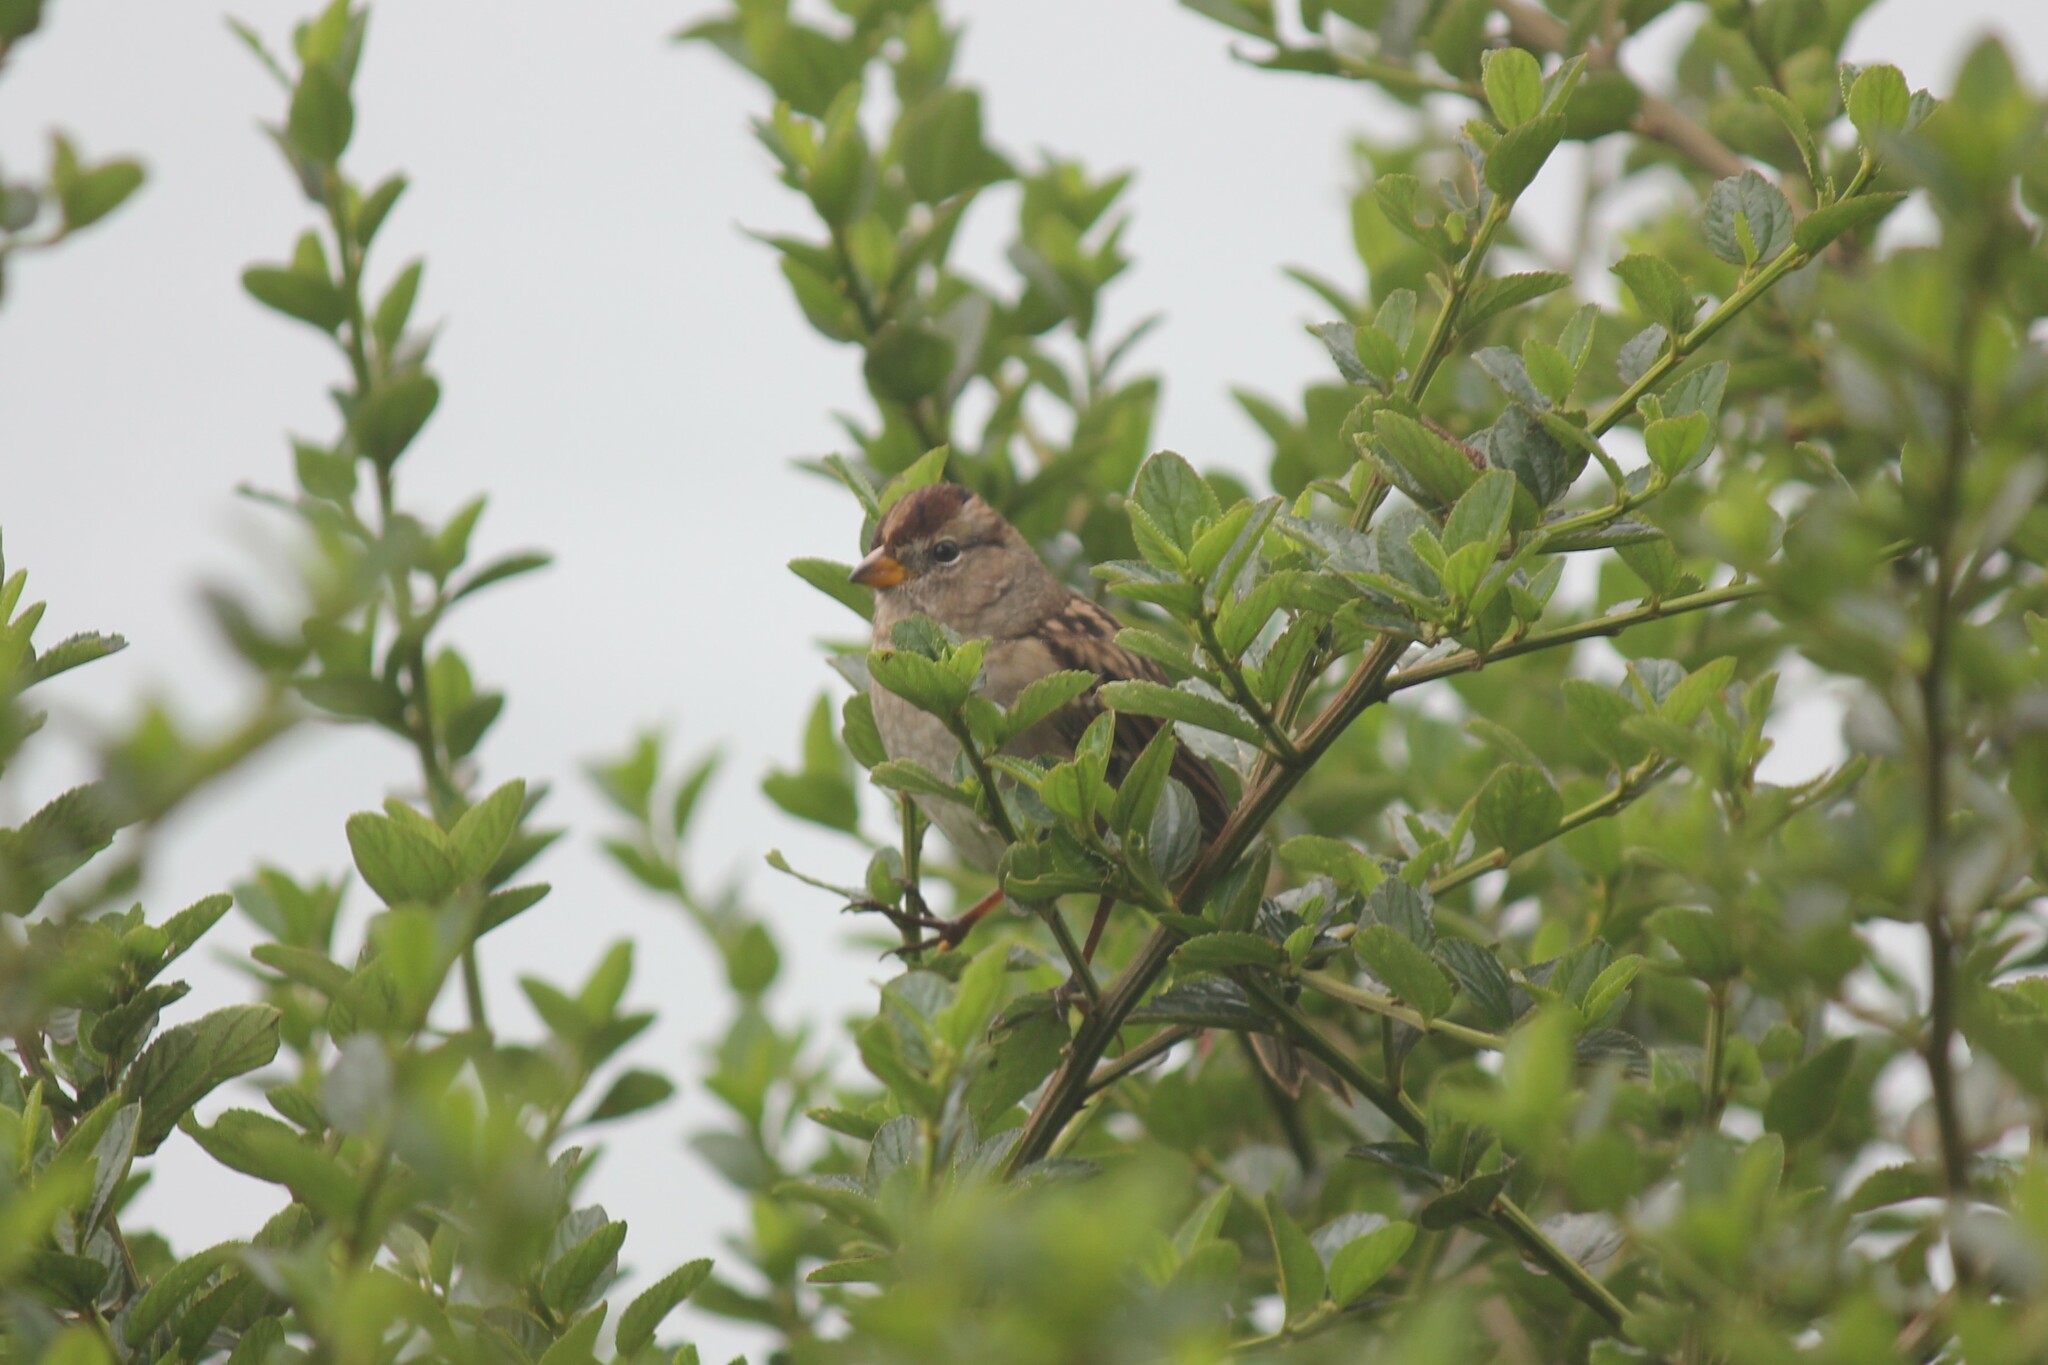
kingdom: Animalia
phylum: Chordata
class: Aves
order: Passeriformes
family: Passerellidae
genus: Zonotrichia
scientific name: Zonotrichia leucophrys
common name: White-crowned sparrow
